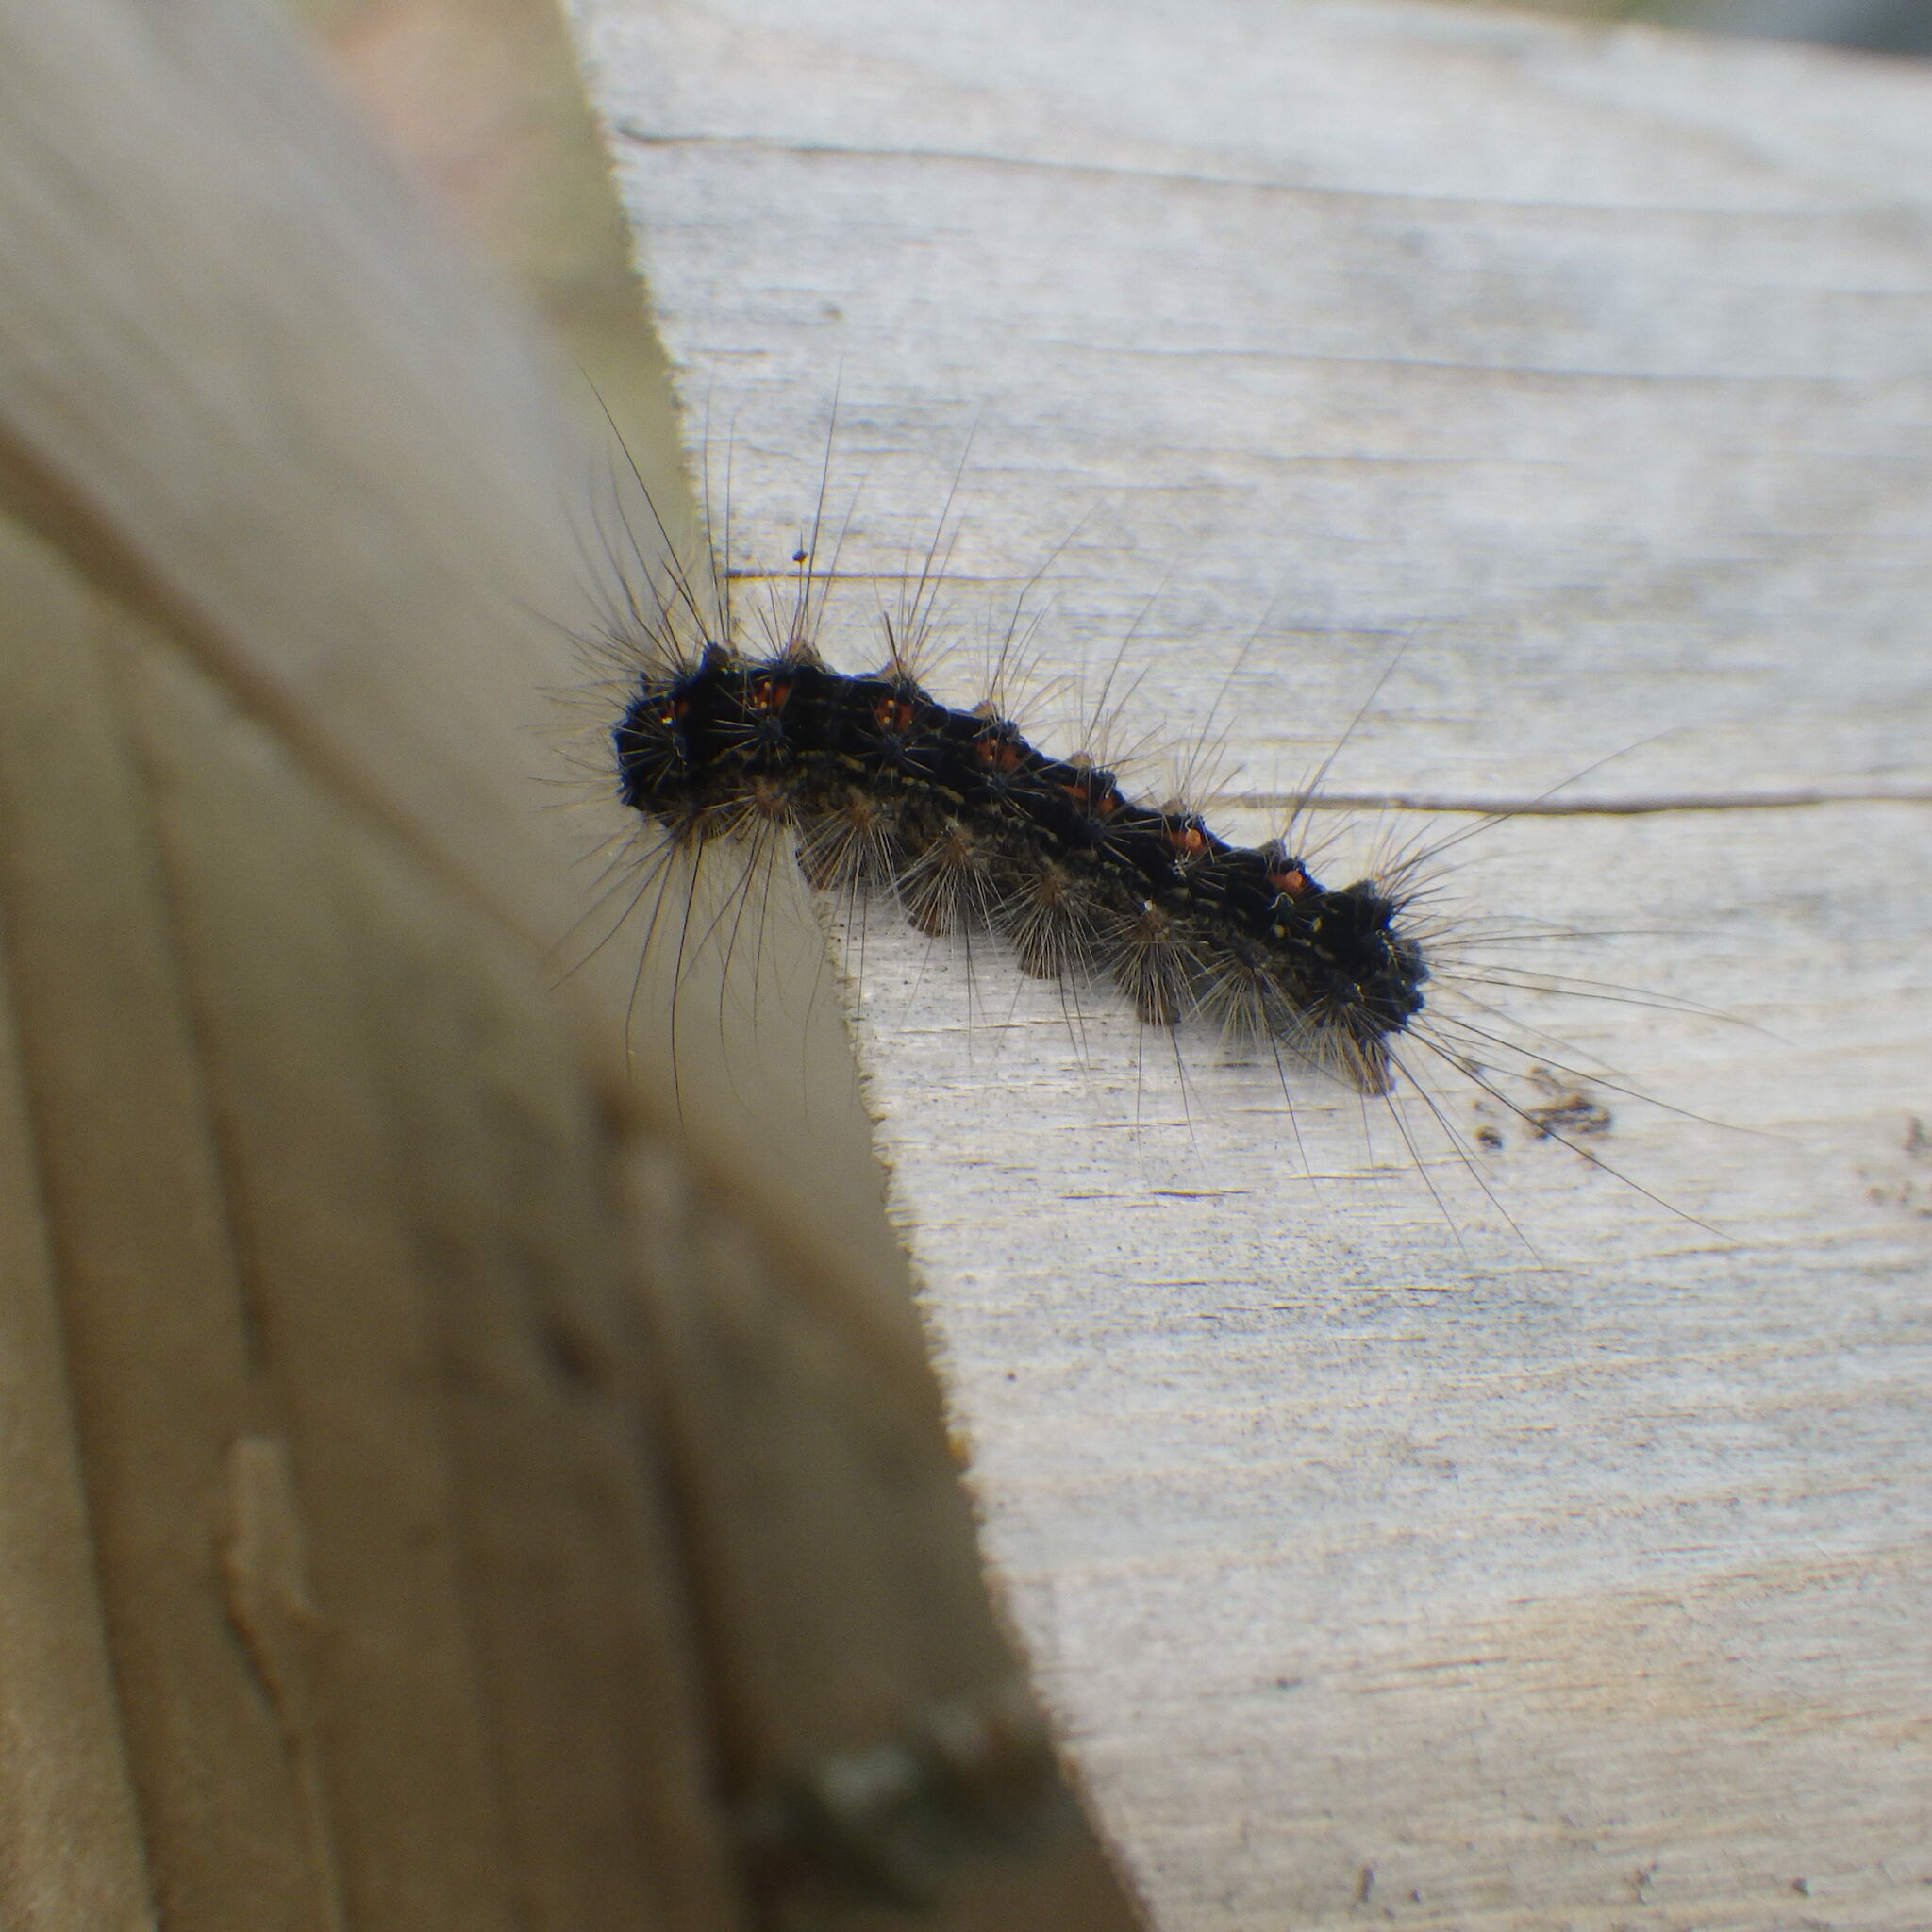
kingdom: Animalia
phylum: Arthropoda
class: Insecta
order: Lepidoptera
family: Erebidae
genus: Lymantria
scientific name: Lymantria dispar
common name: Gypsy moth
